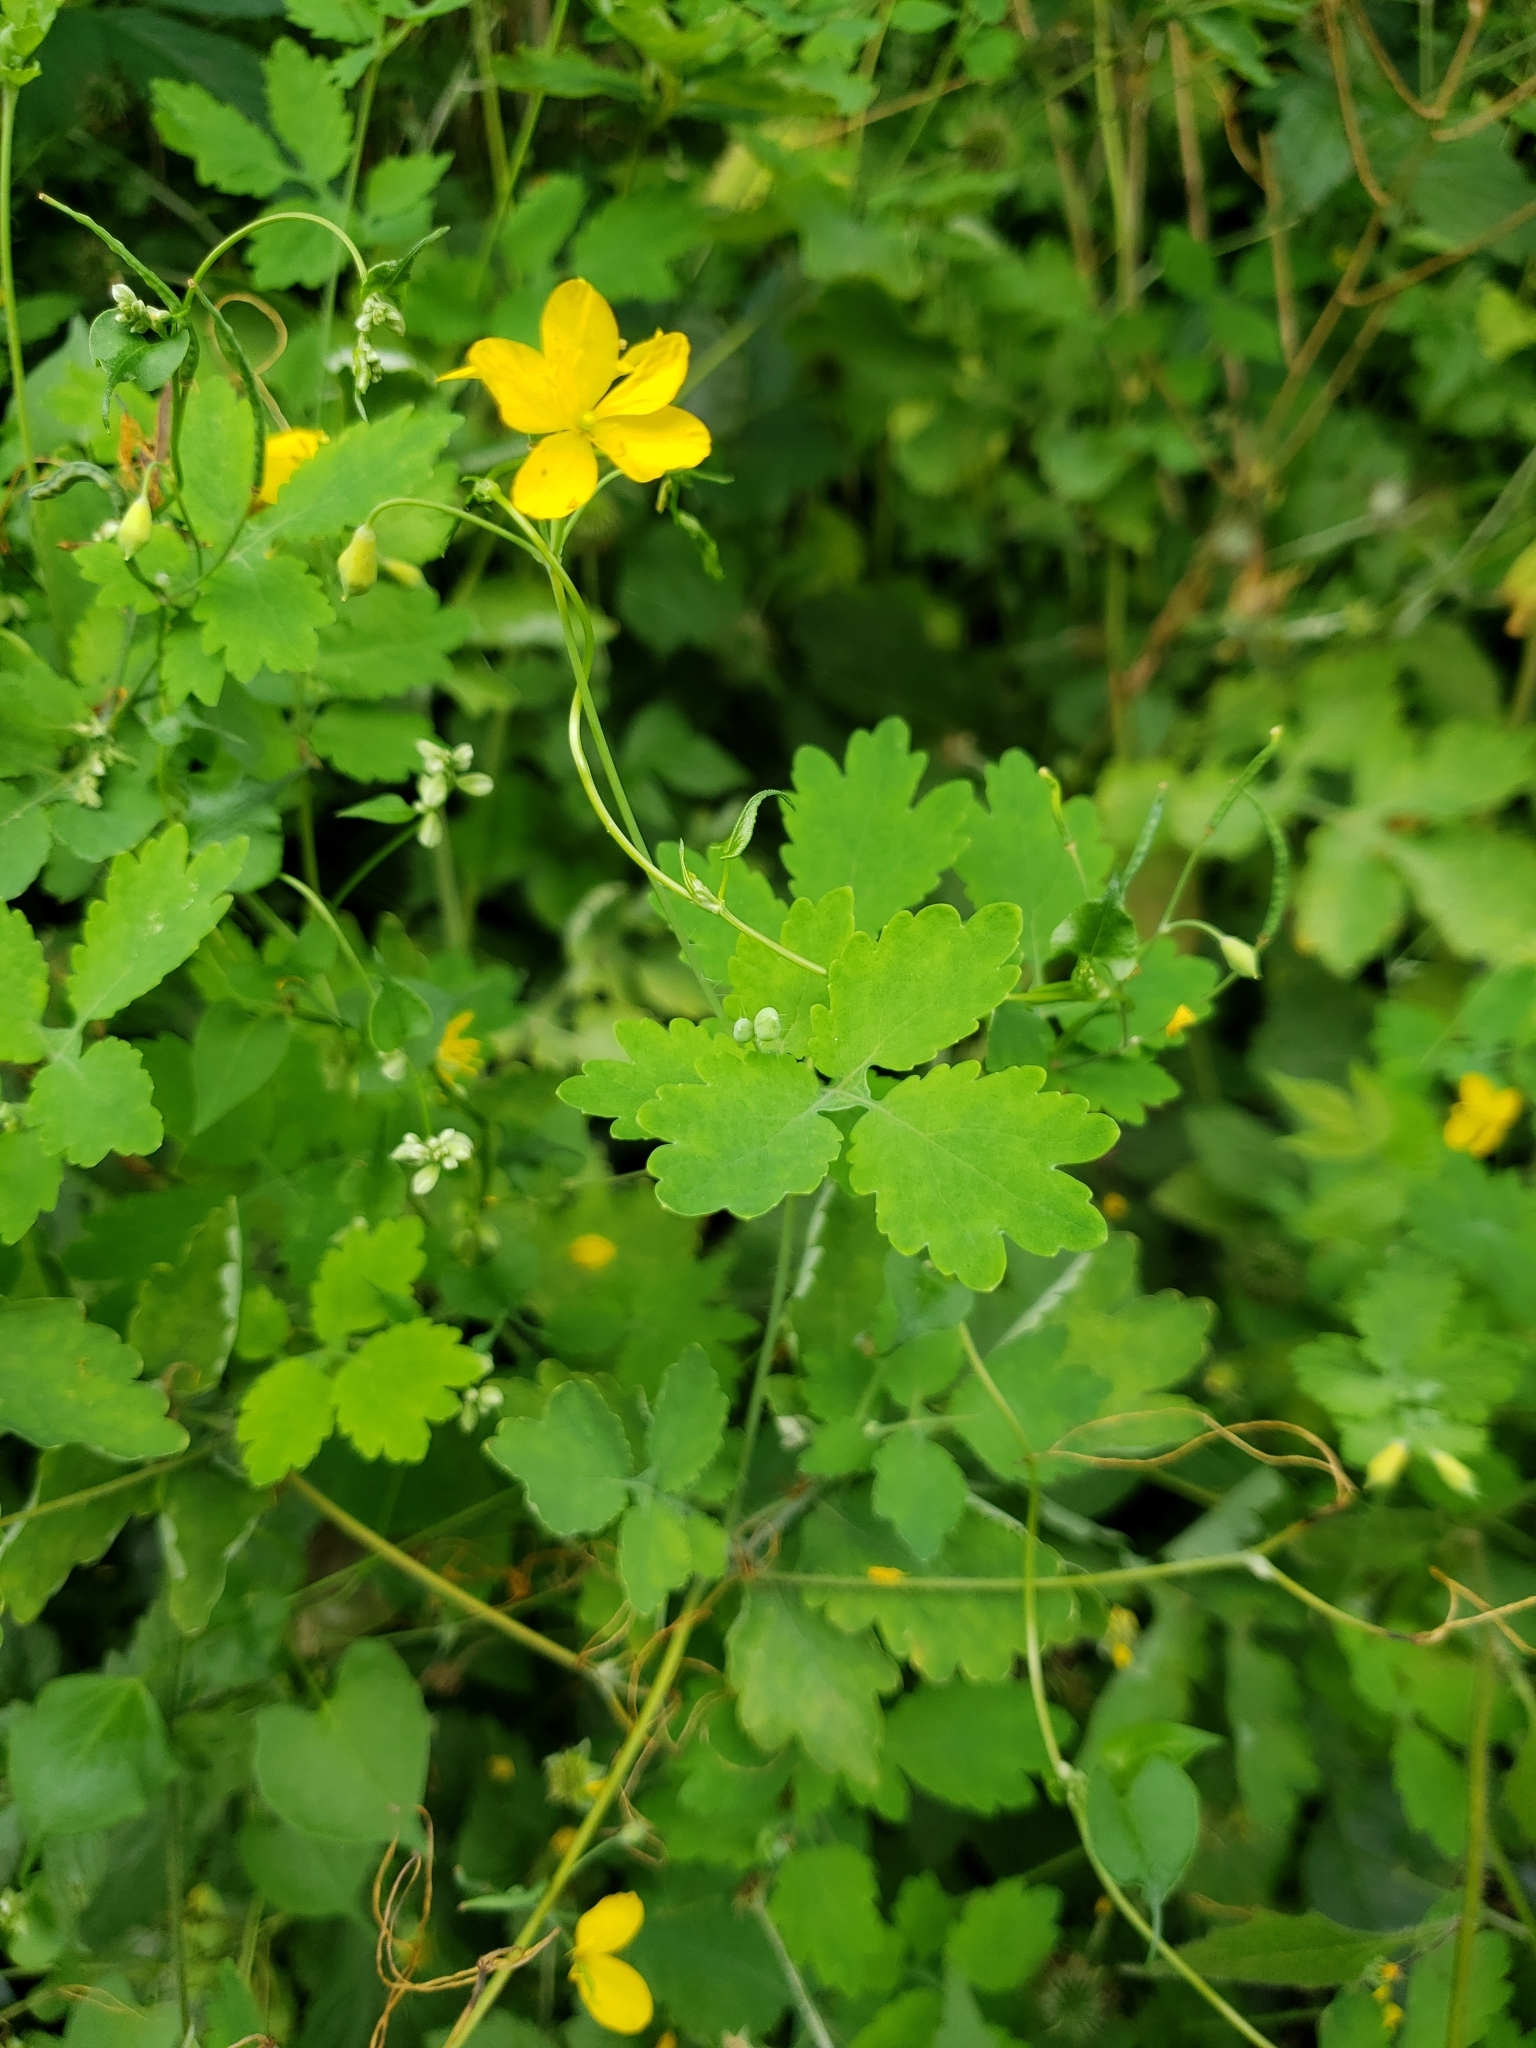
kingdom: Plantae
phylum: Tracheophyta
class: Magnoliopsida
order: Ranunculales
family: Papaveraceae
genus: Chelidonium
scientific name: Chelidonium majus
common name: Greater celandine
